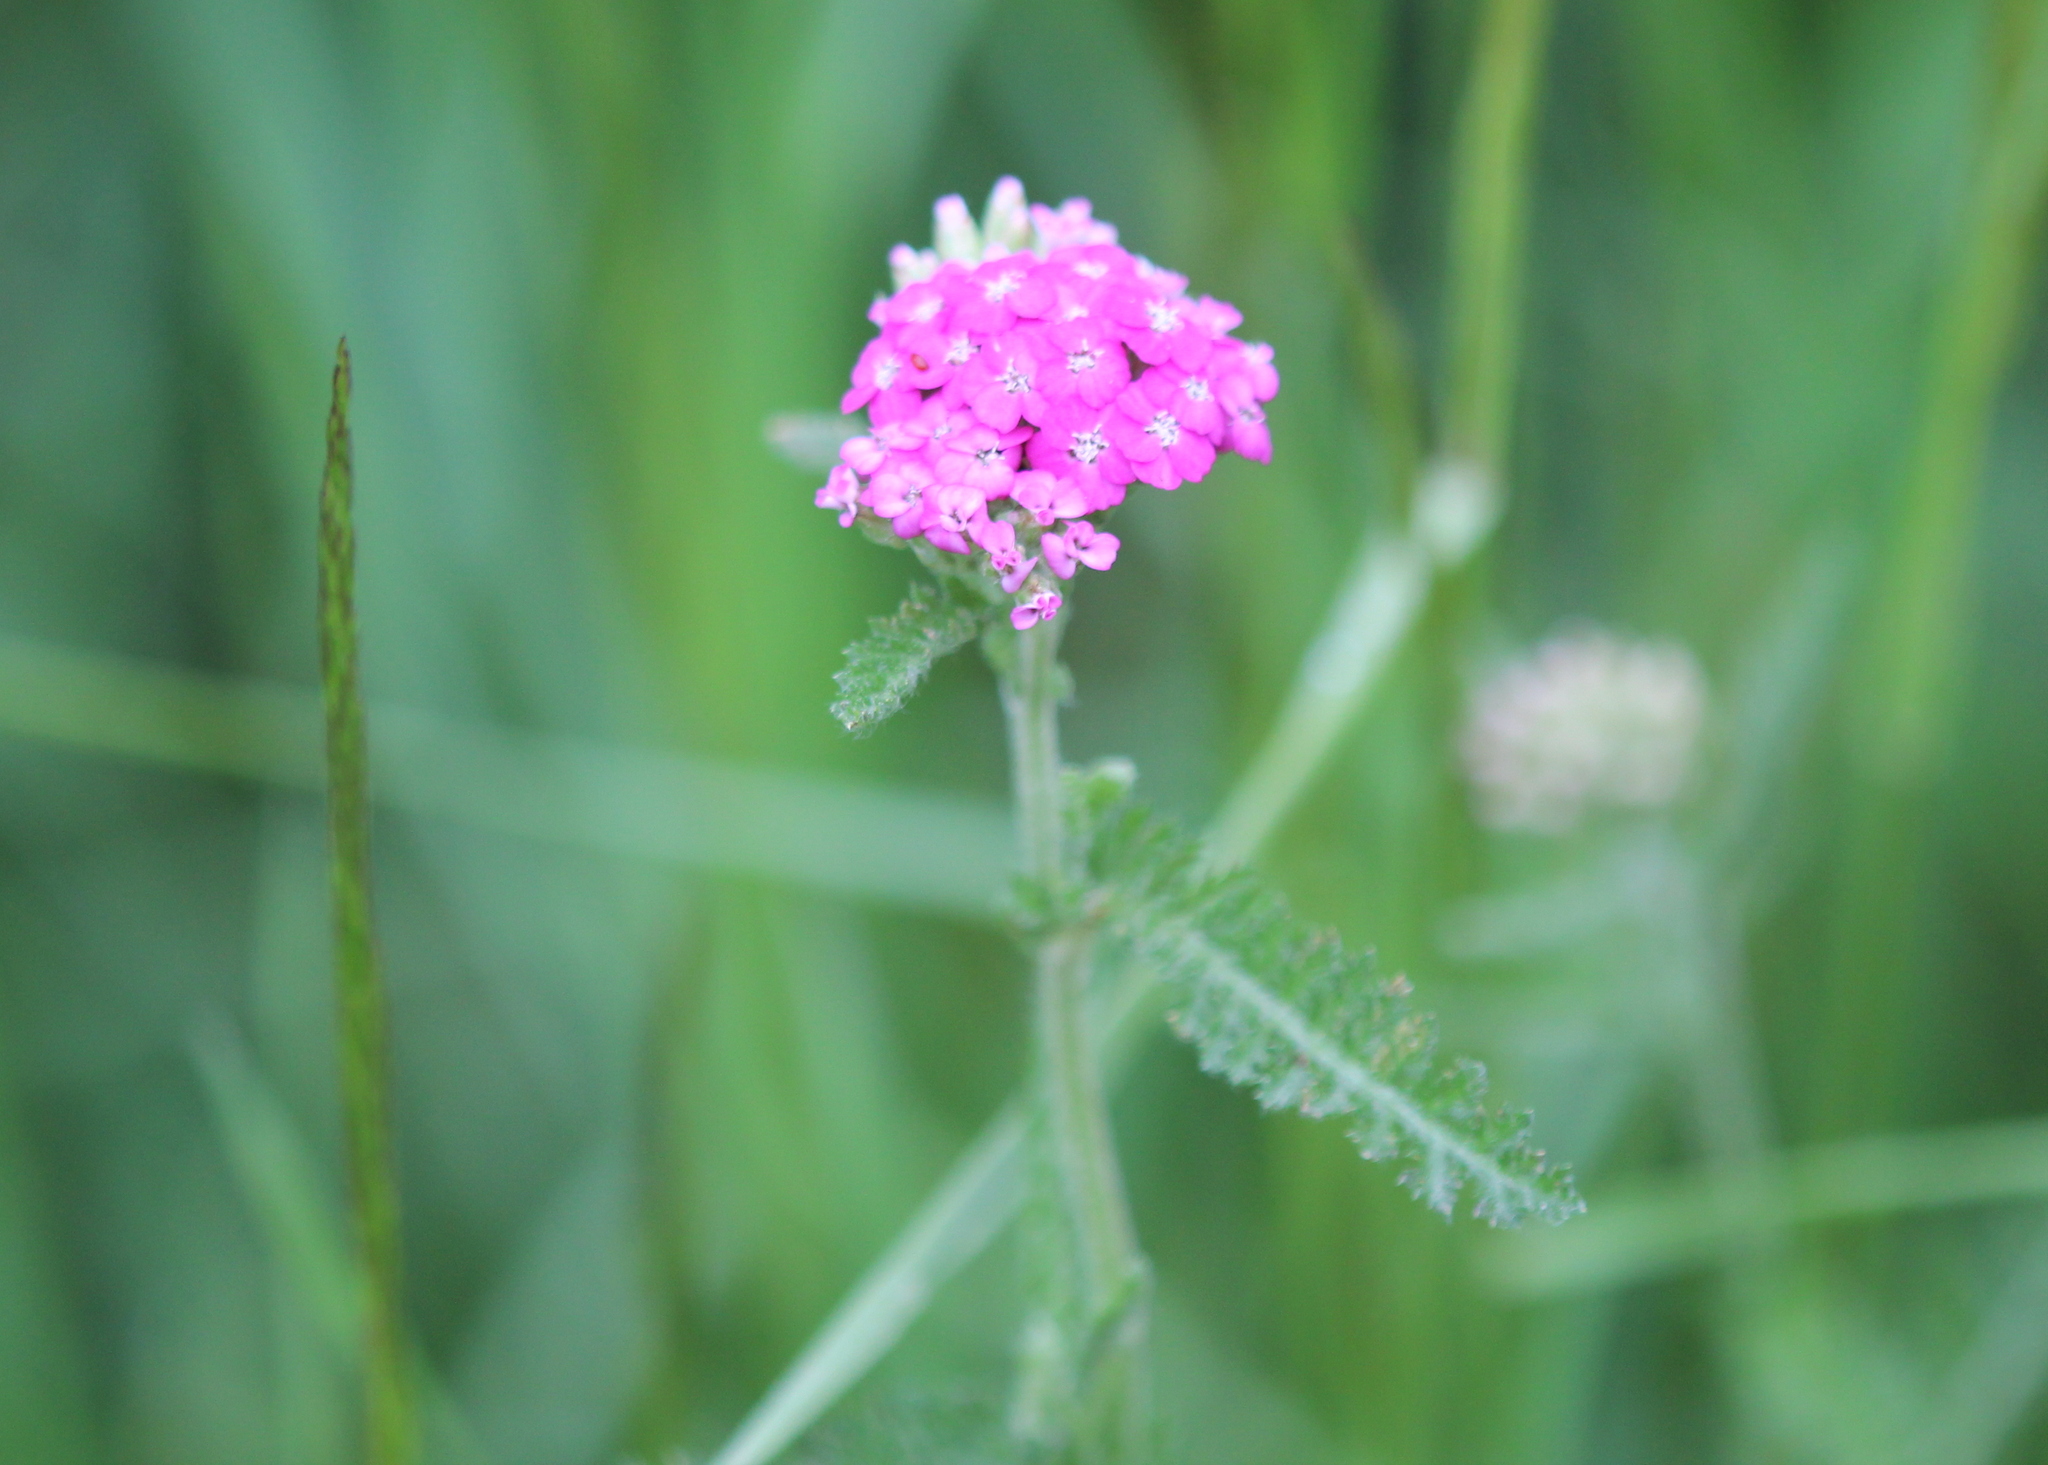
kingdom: Plantae
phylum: Tracheophyta
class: Magnoliopsida
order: Asterales
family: Asteraceae
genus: Achillea
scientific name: Achillea millefolium
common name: Yarrow
